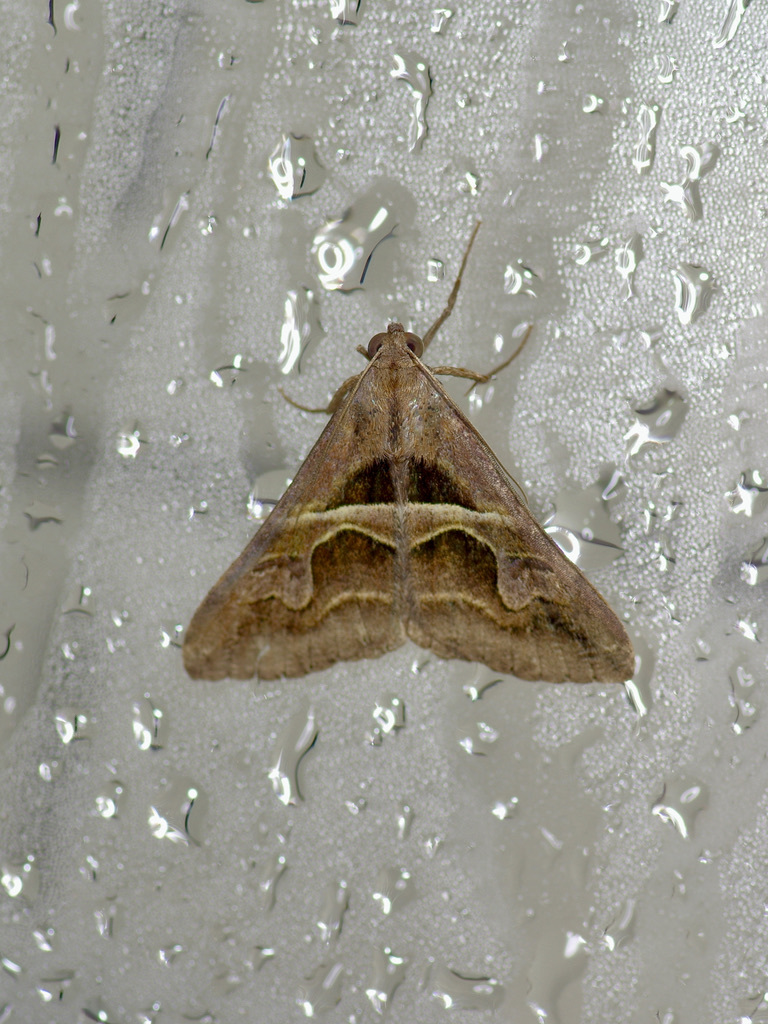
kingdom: Animalia
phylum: Arthropoda
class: Insecta
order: Lepidoptera
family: Erebidae
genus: Melipotis
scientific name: Melipotis cellaris
